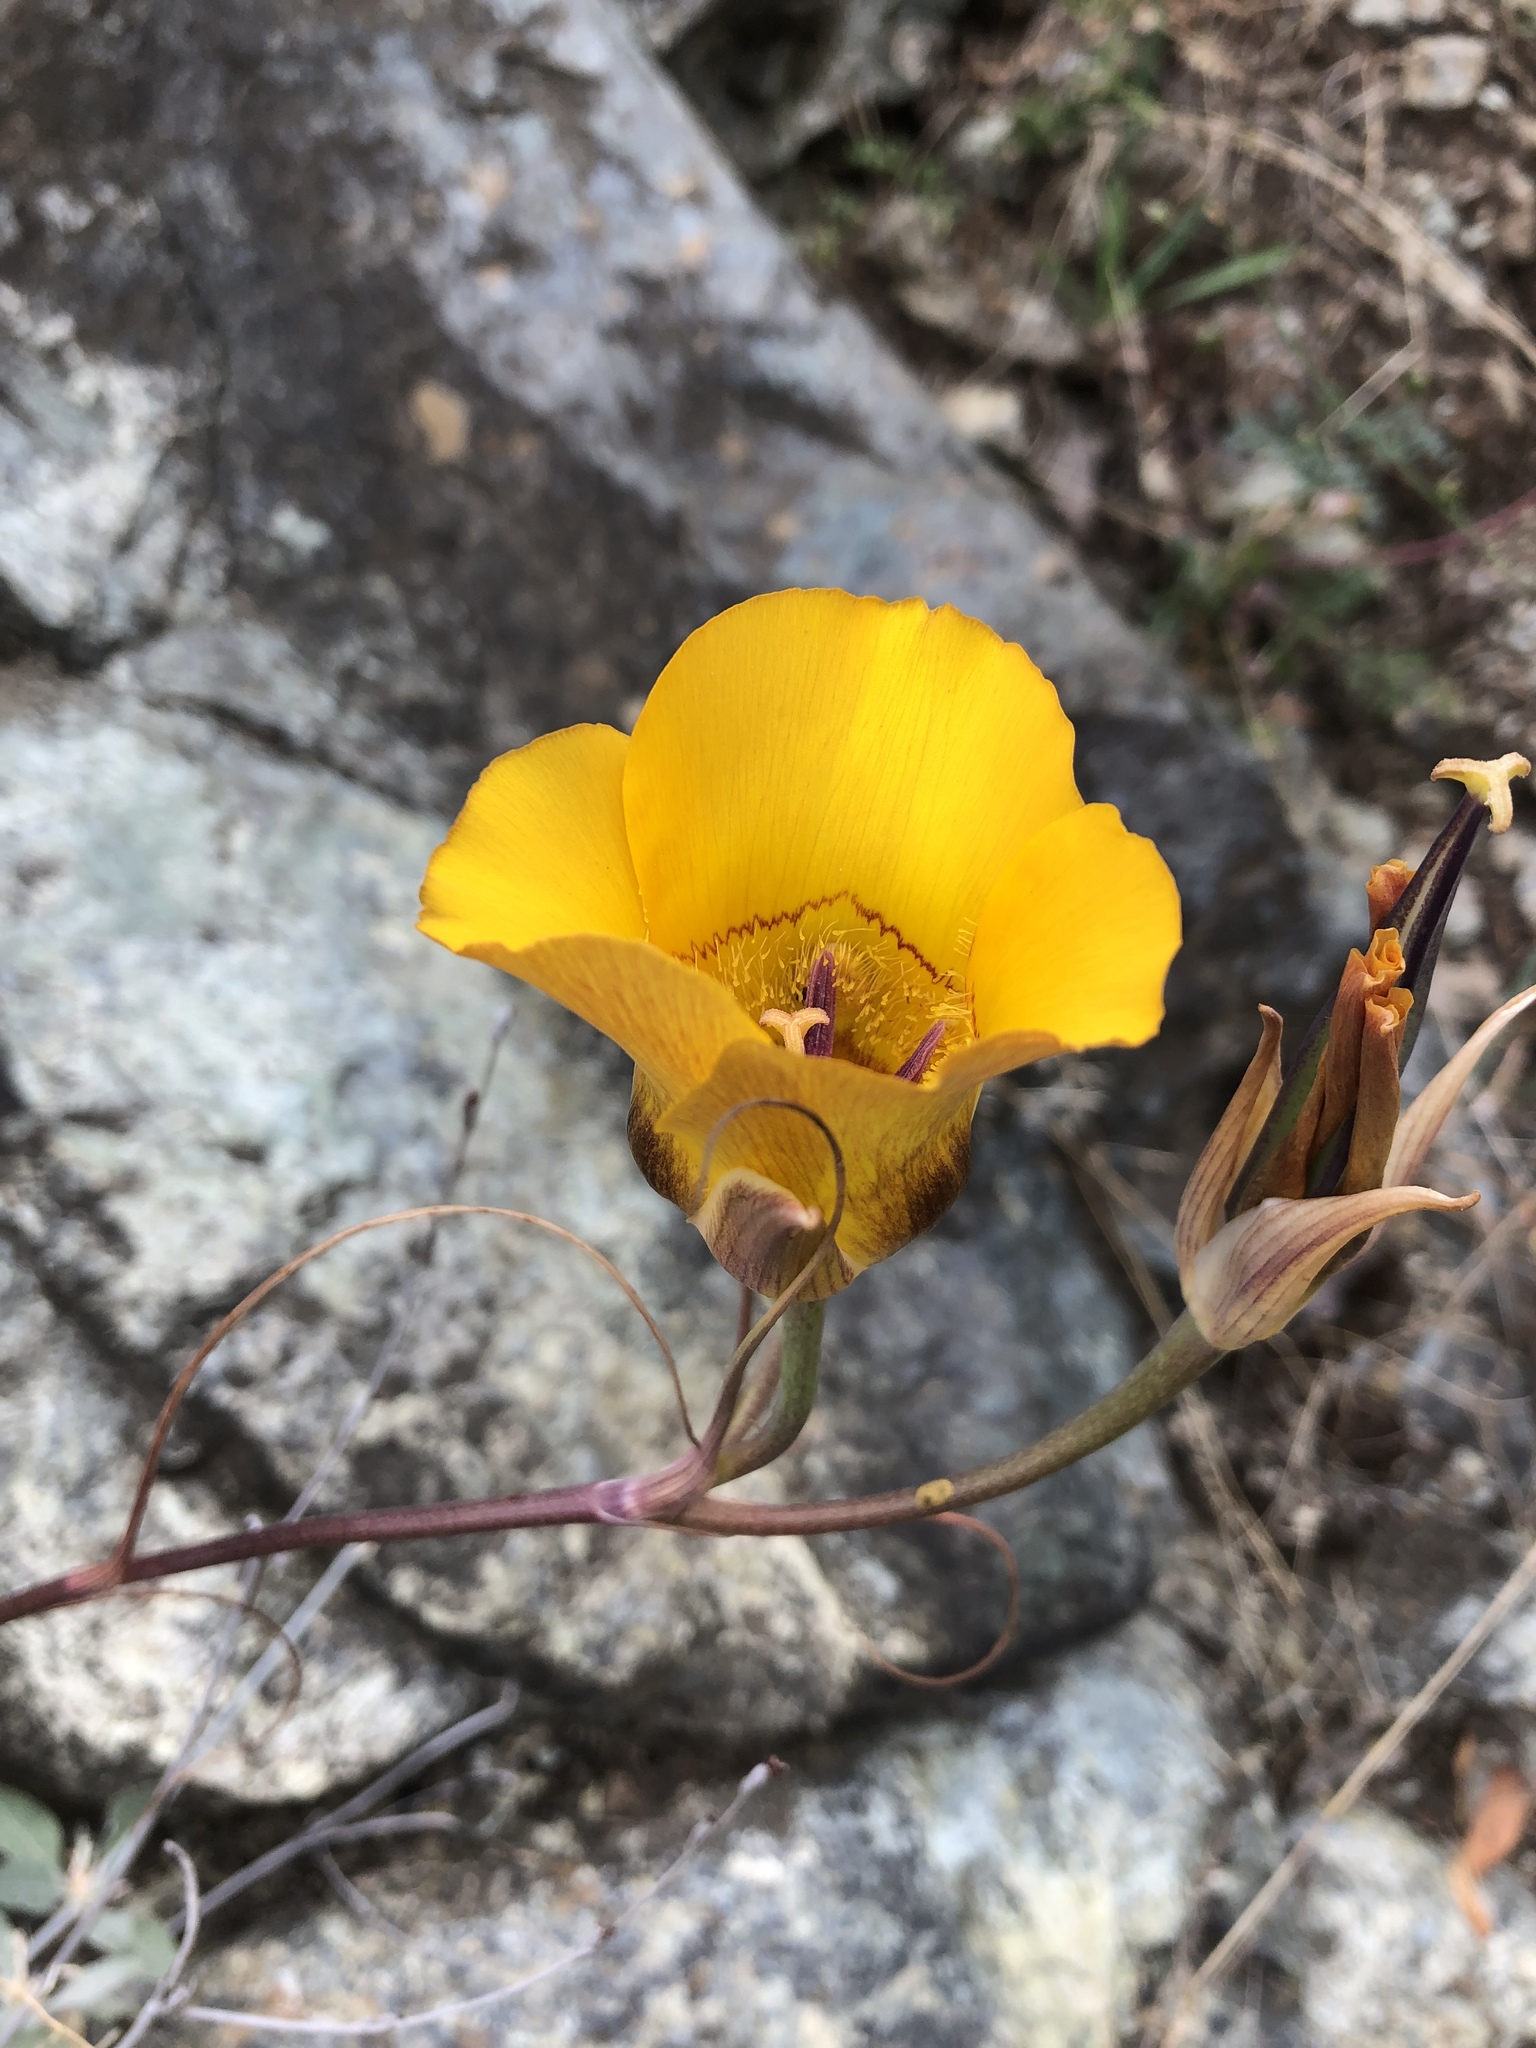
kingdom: Plantae
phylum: Tracheophyta
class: Liliopsida
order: Liliales
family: Liliaceae
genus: Calochortus
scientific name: Calochortus clavatus
